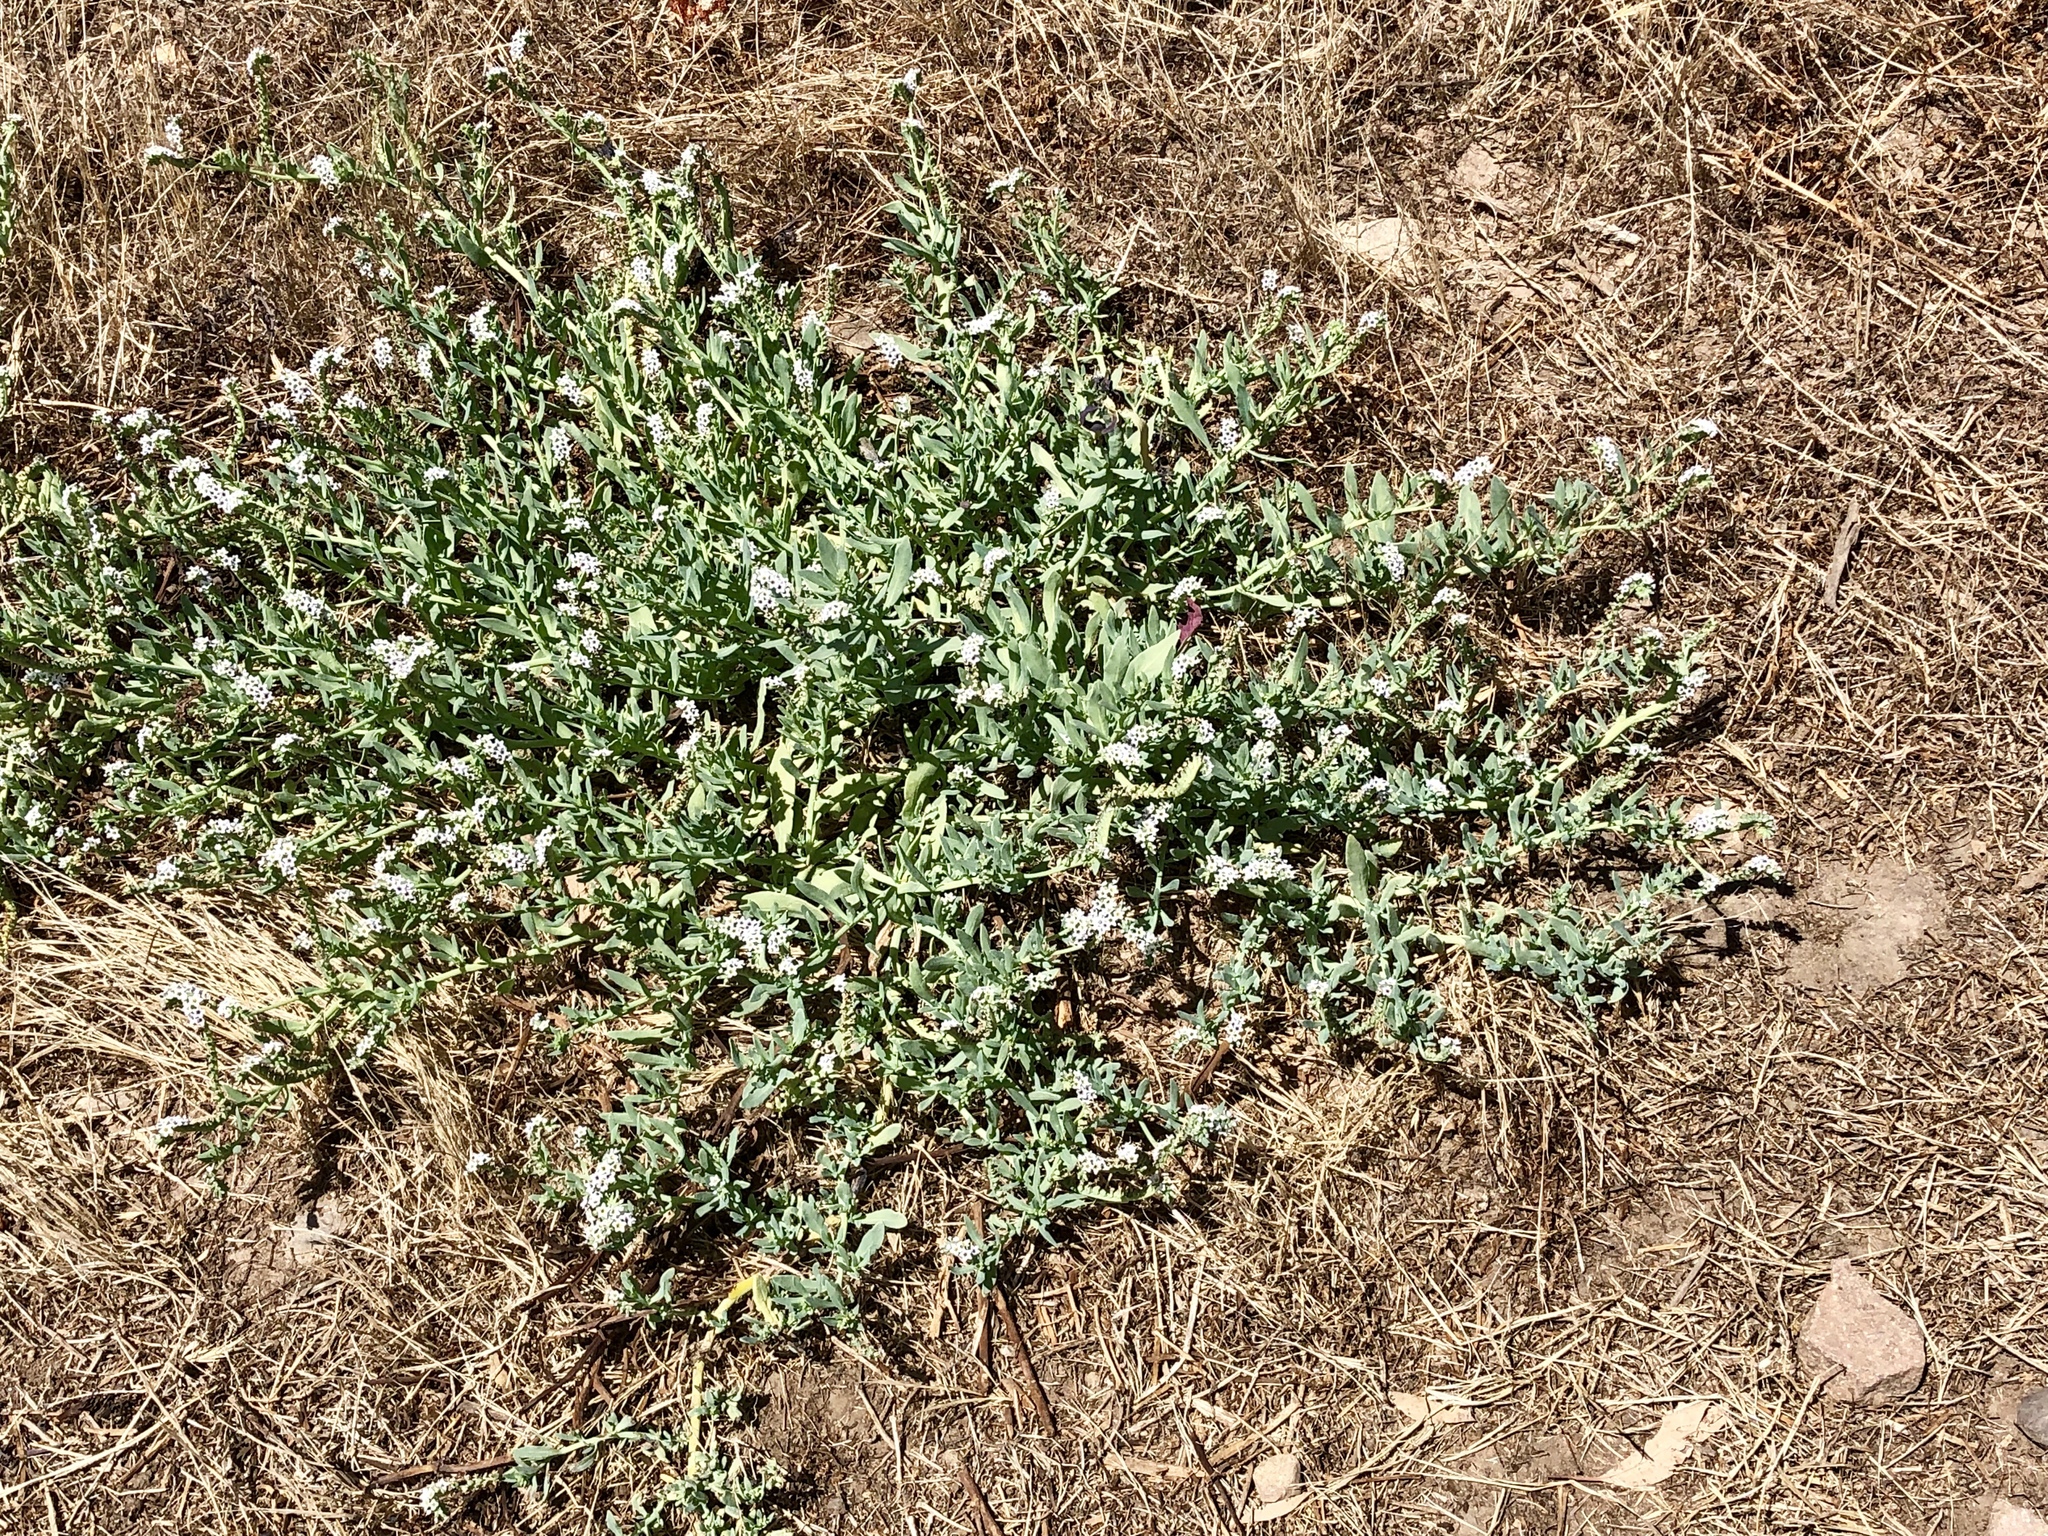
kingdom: Plantae
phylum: Tracheophyta
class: Magnoliopsida
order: Boraginales
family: Heliotropiaceae
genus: Heliotropium
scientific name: Heliotropium curassavicum
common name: Seaside heliotrope
